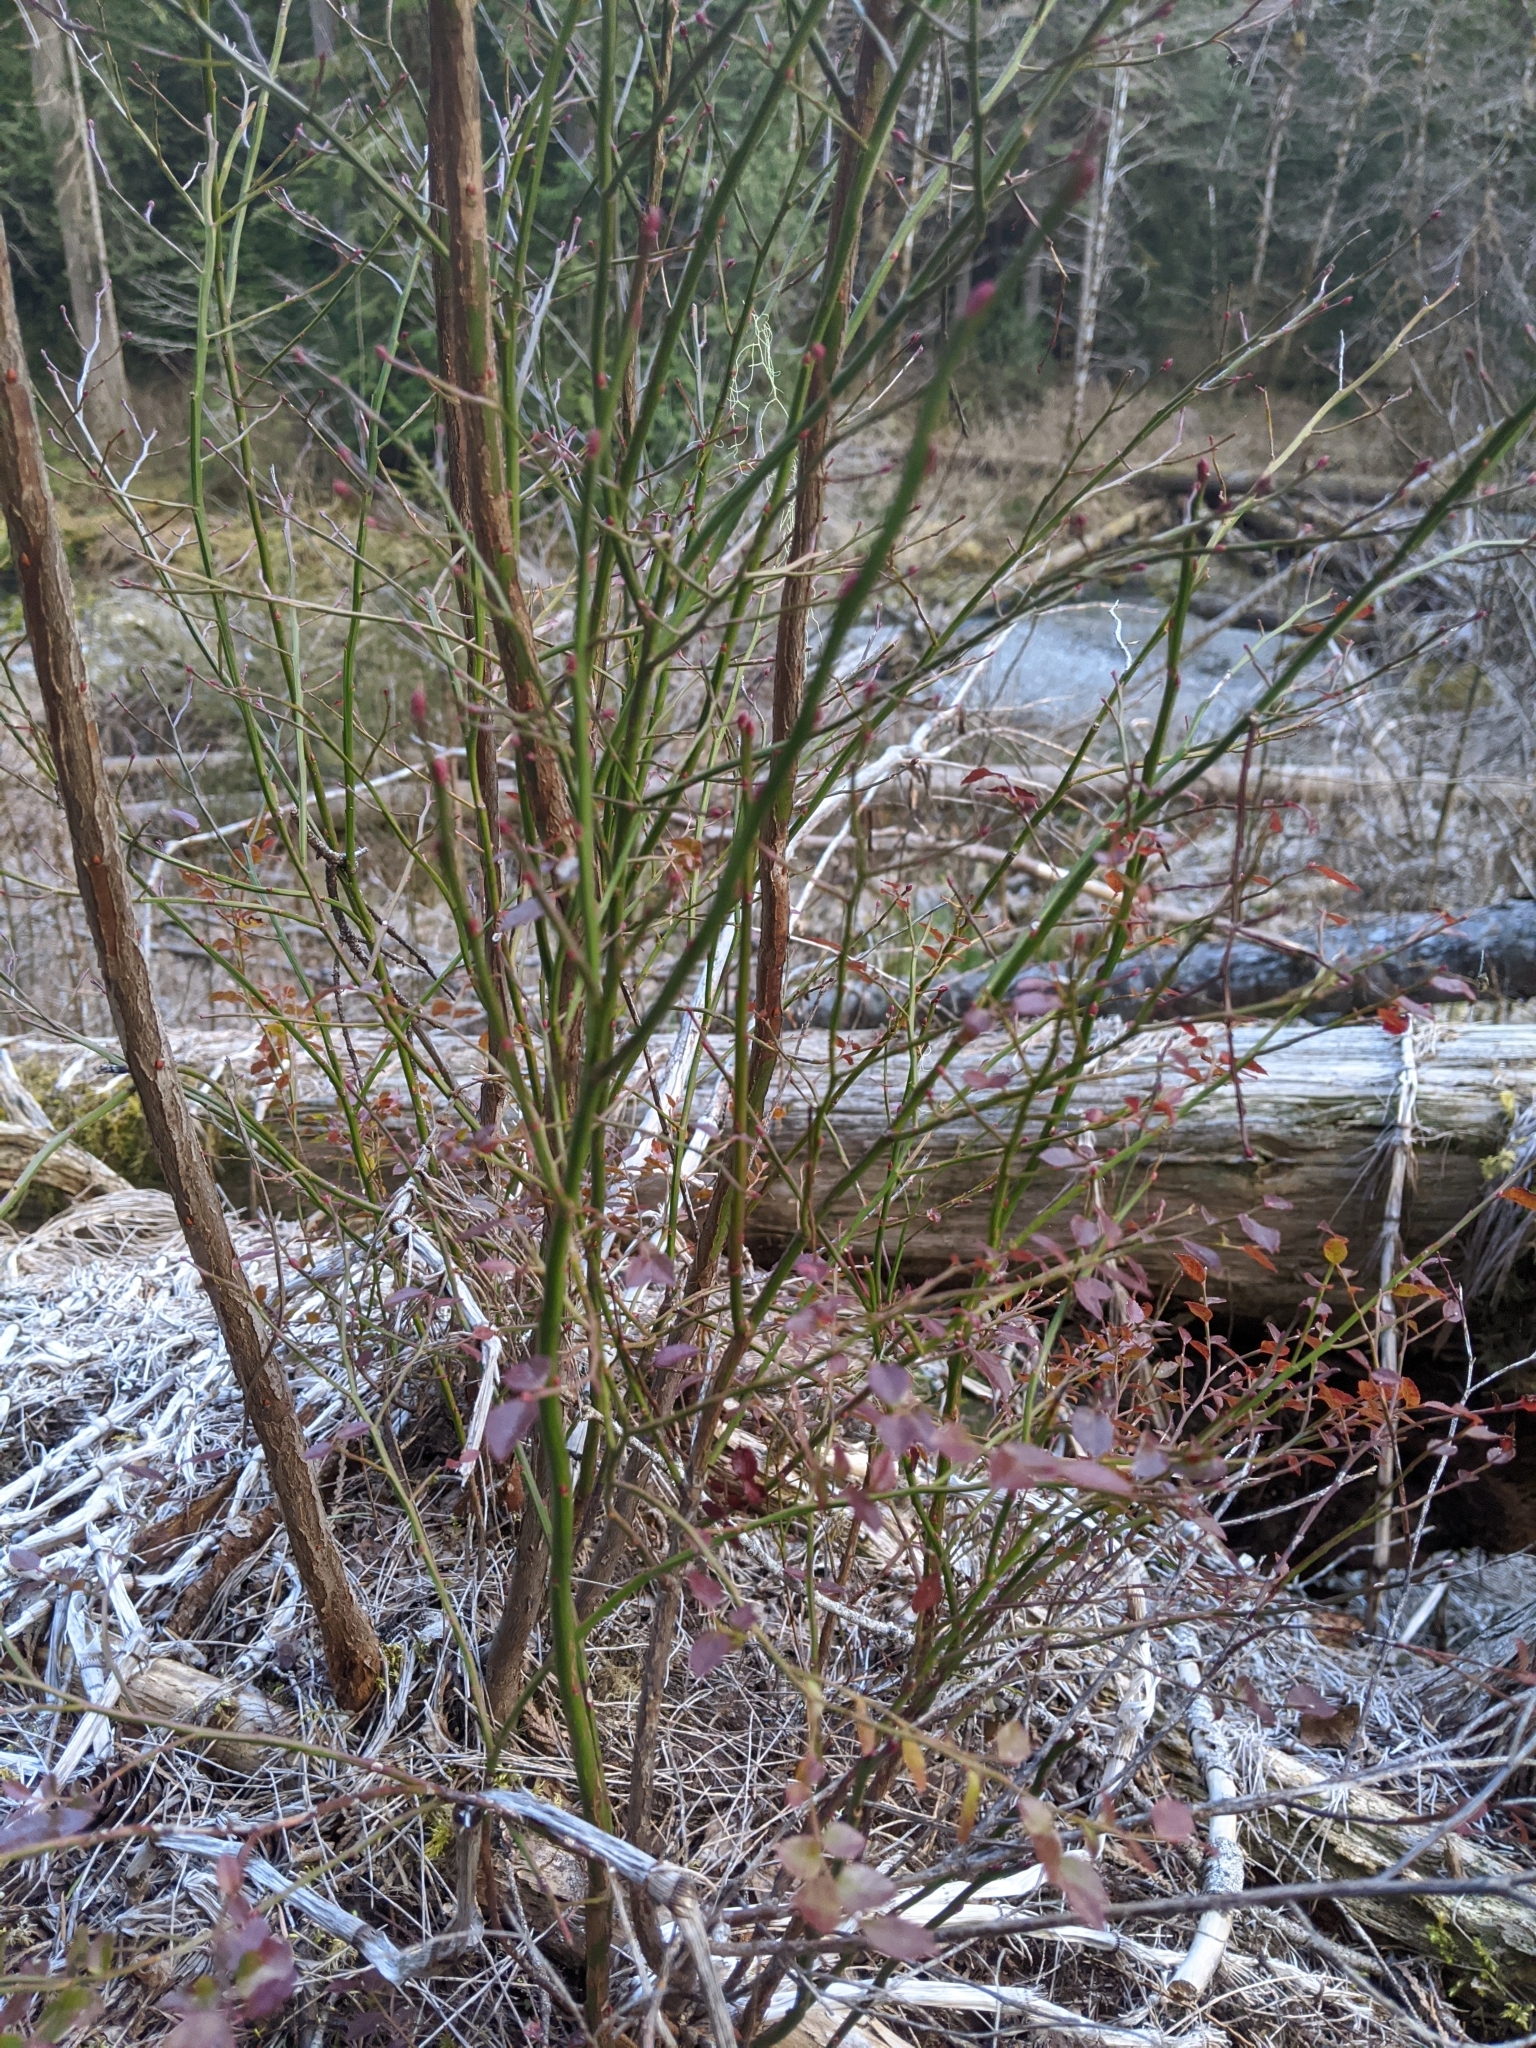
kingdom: Plantae
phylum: Tracheophyta
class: Magnoliopsida
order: Ericales
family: Ericaceae
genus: Vaccinium
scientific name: Vaccinium parvifolium
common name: Red-huckleberry
